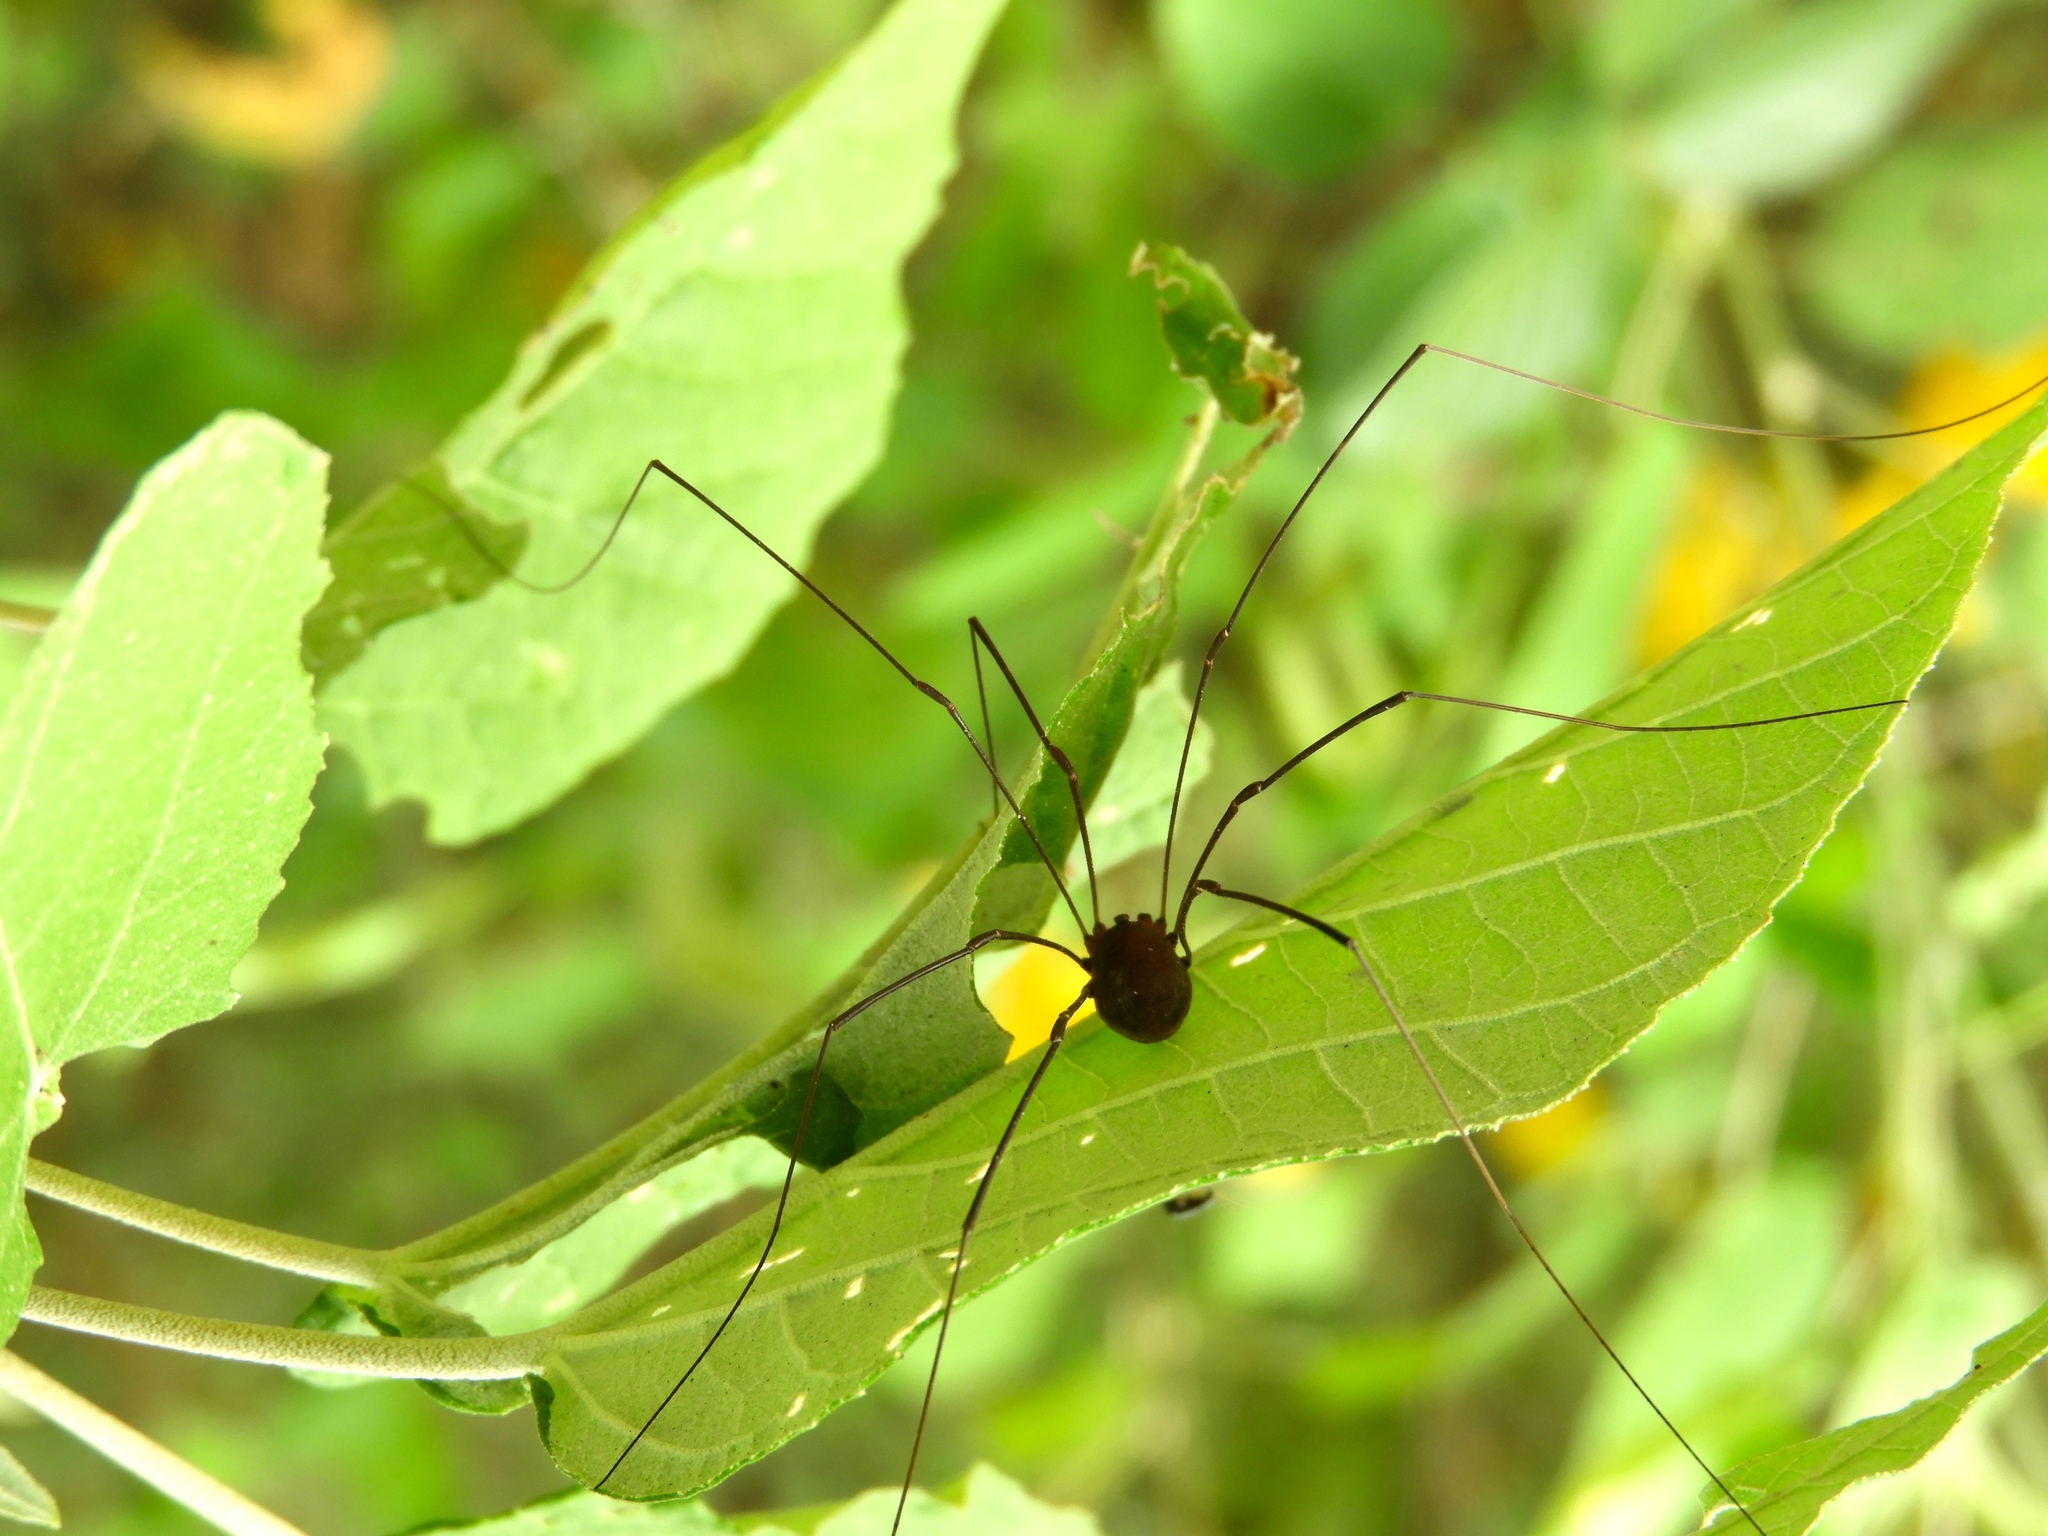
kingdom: Animalia
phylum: Arthropoda
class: Arachnida
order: Opiliones
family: Sclerosomatidae
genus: Leiobunum
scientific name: Leiobunum
